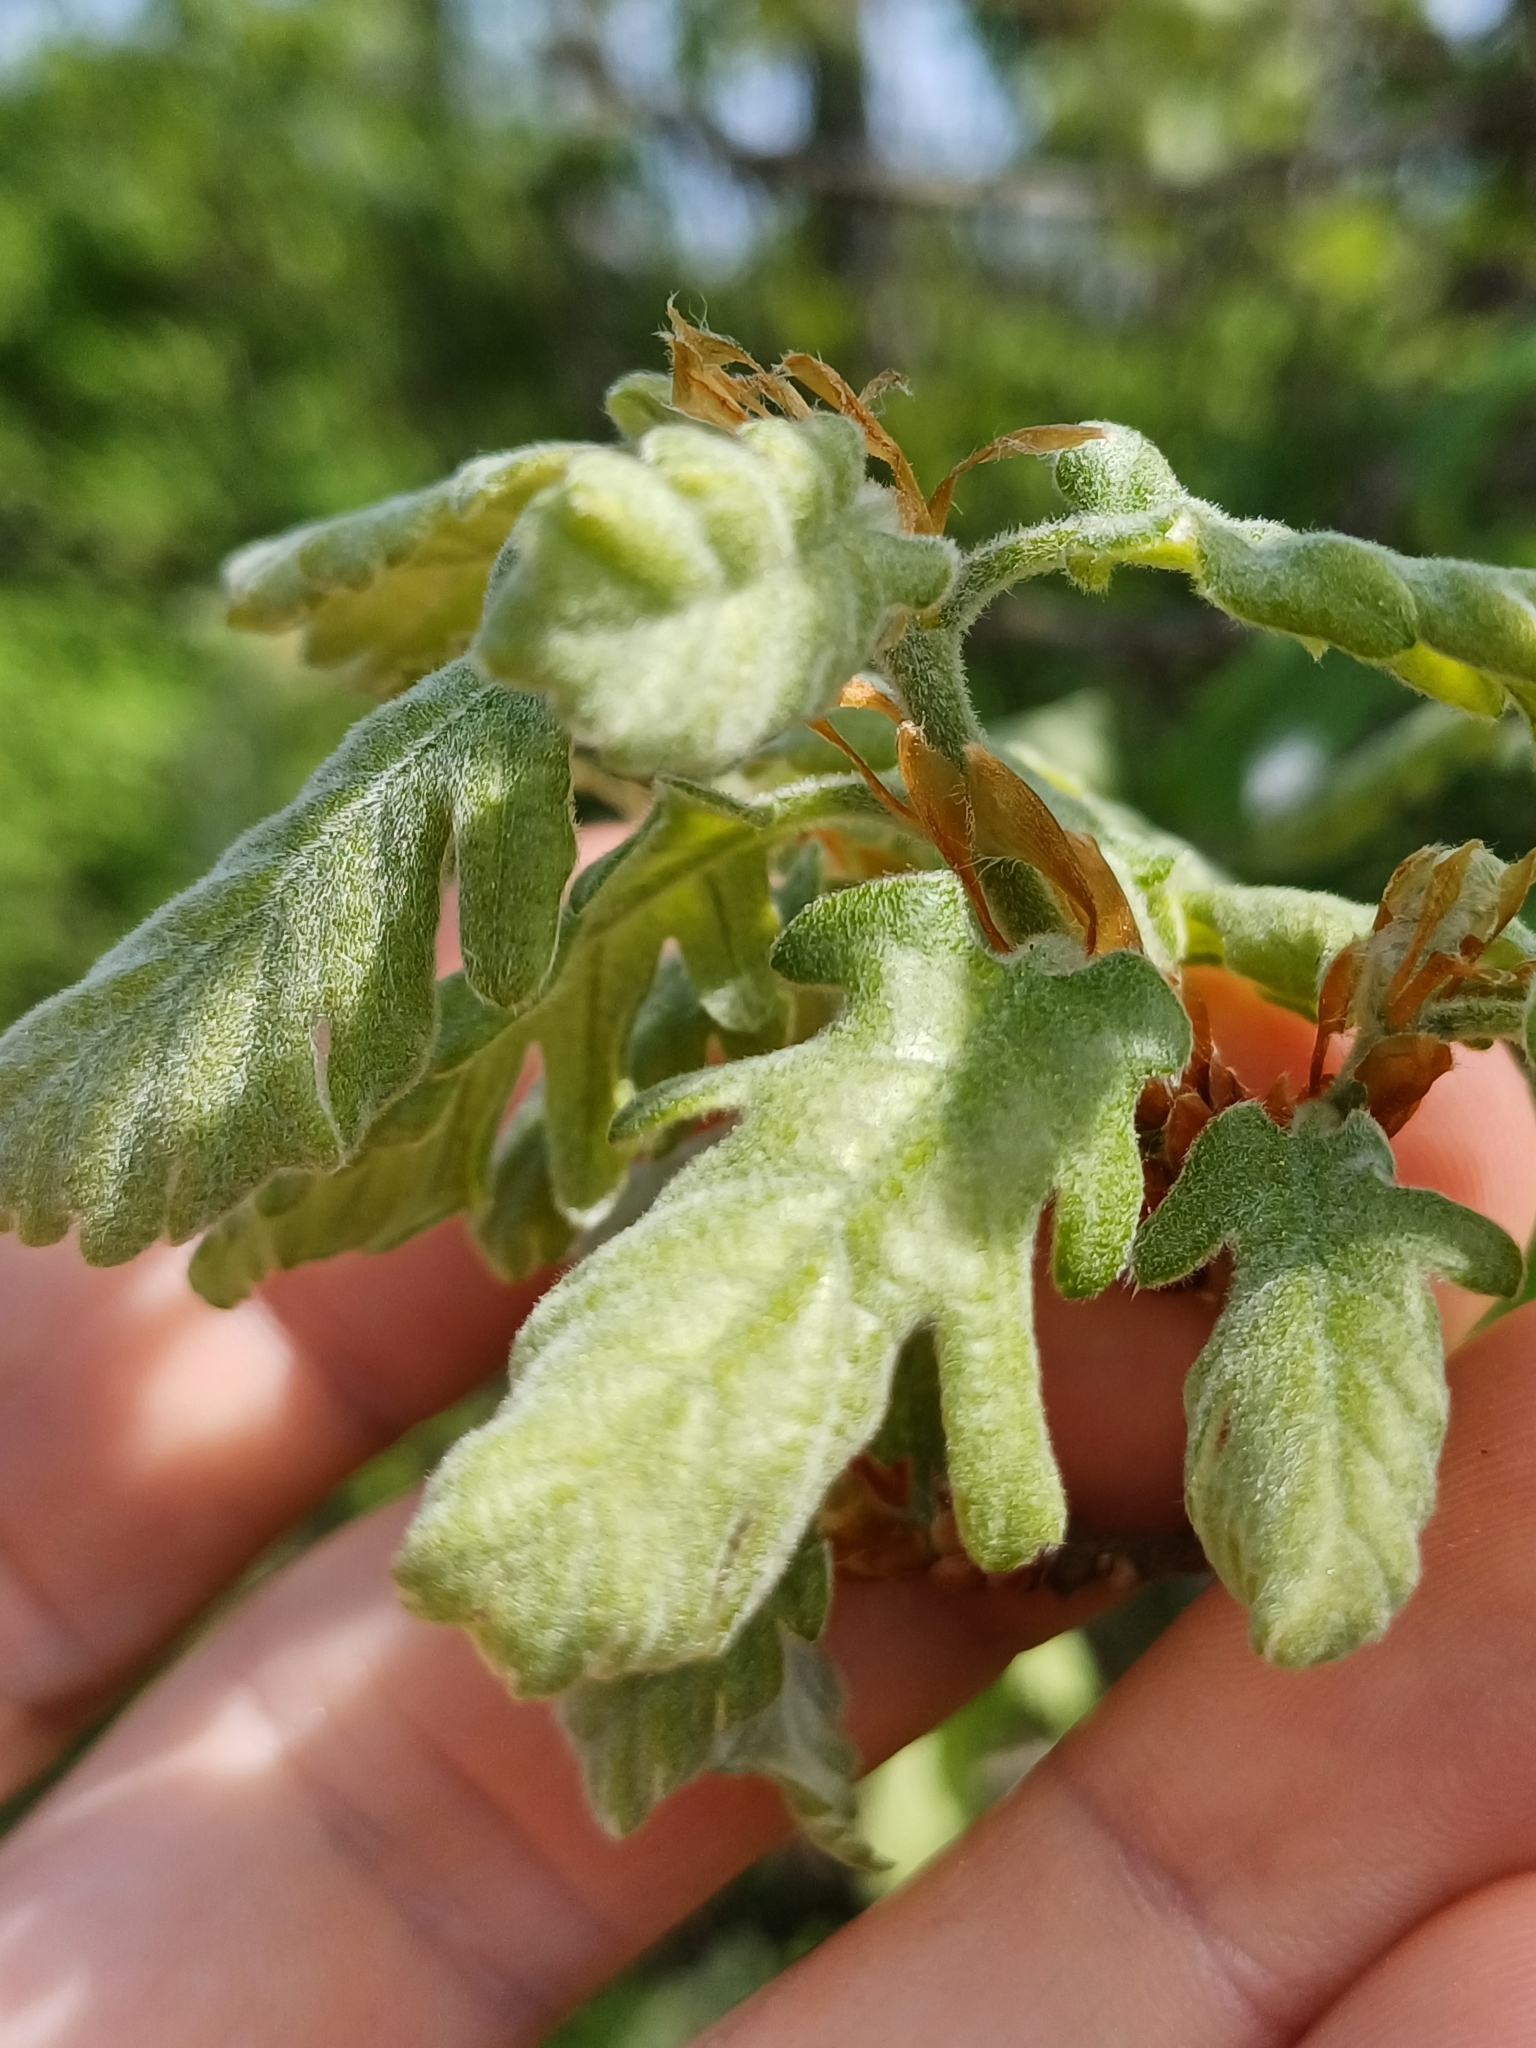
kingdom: Plantae
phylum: Tracheophyta
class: Magnoliopsida
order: Fagales
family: Fagaceae
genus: Quercus
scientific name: Quercus pubescens
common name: Downy oak
